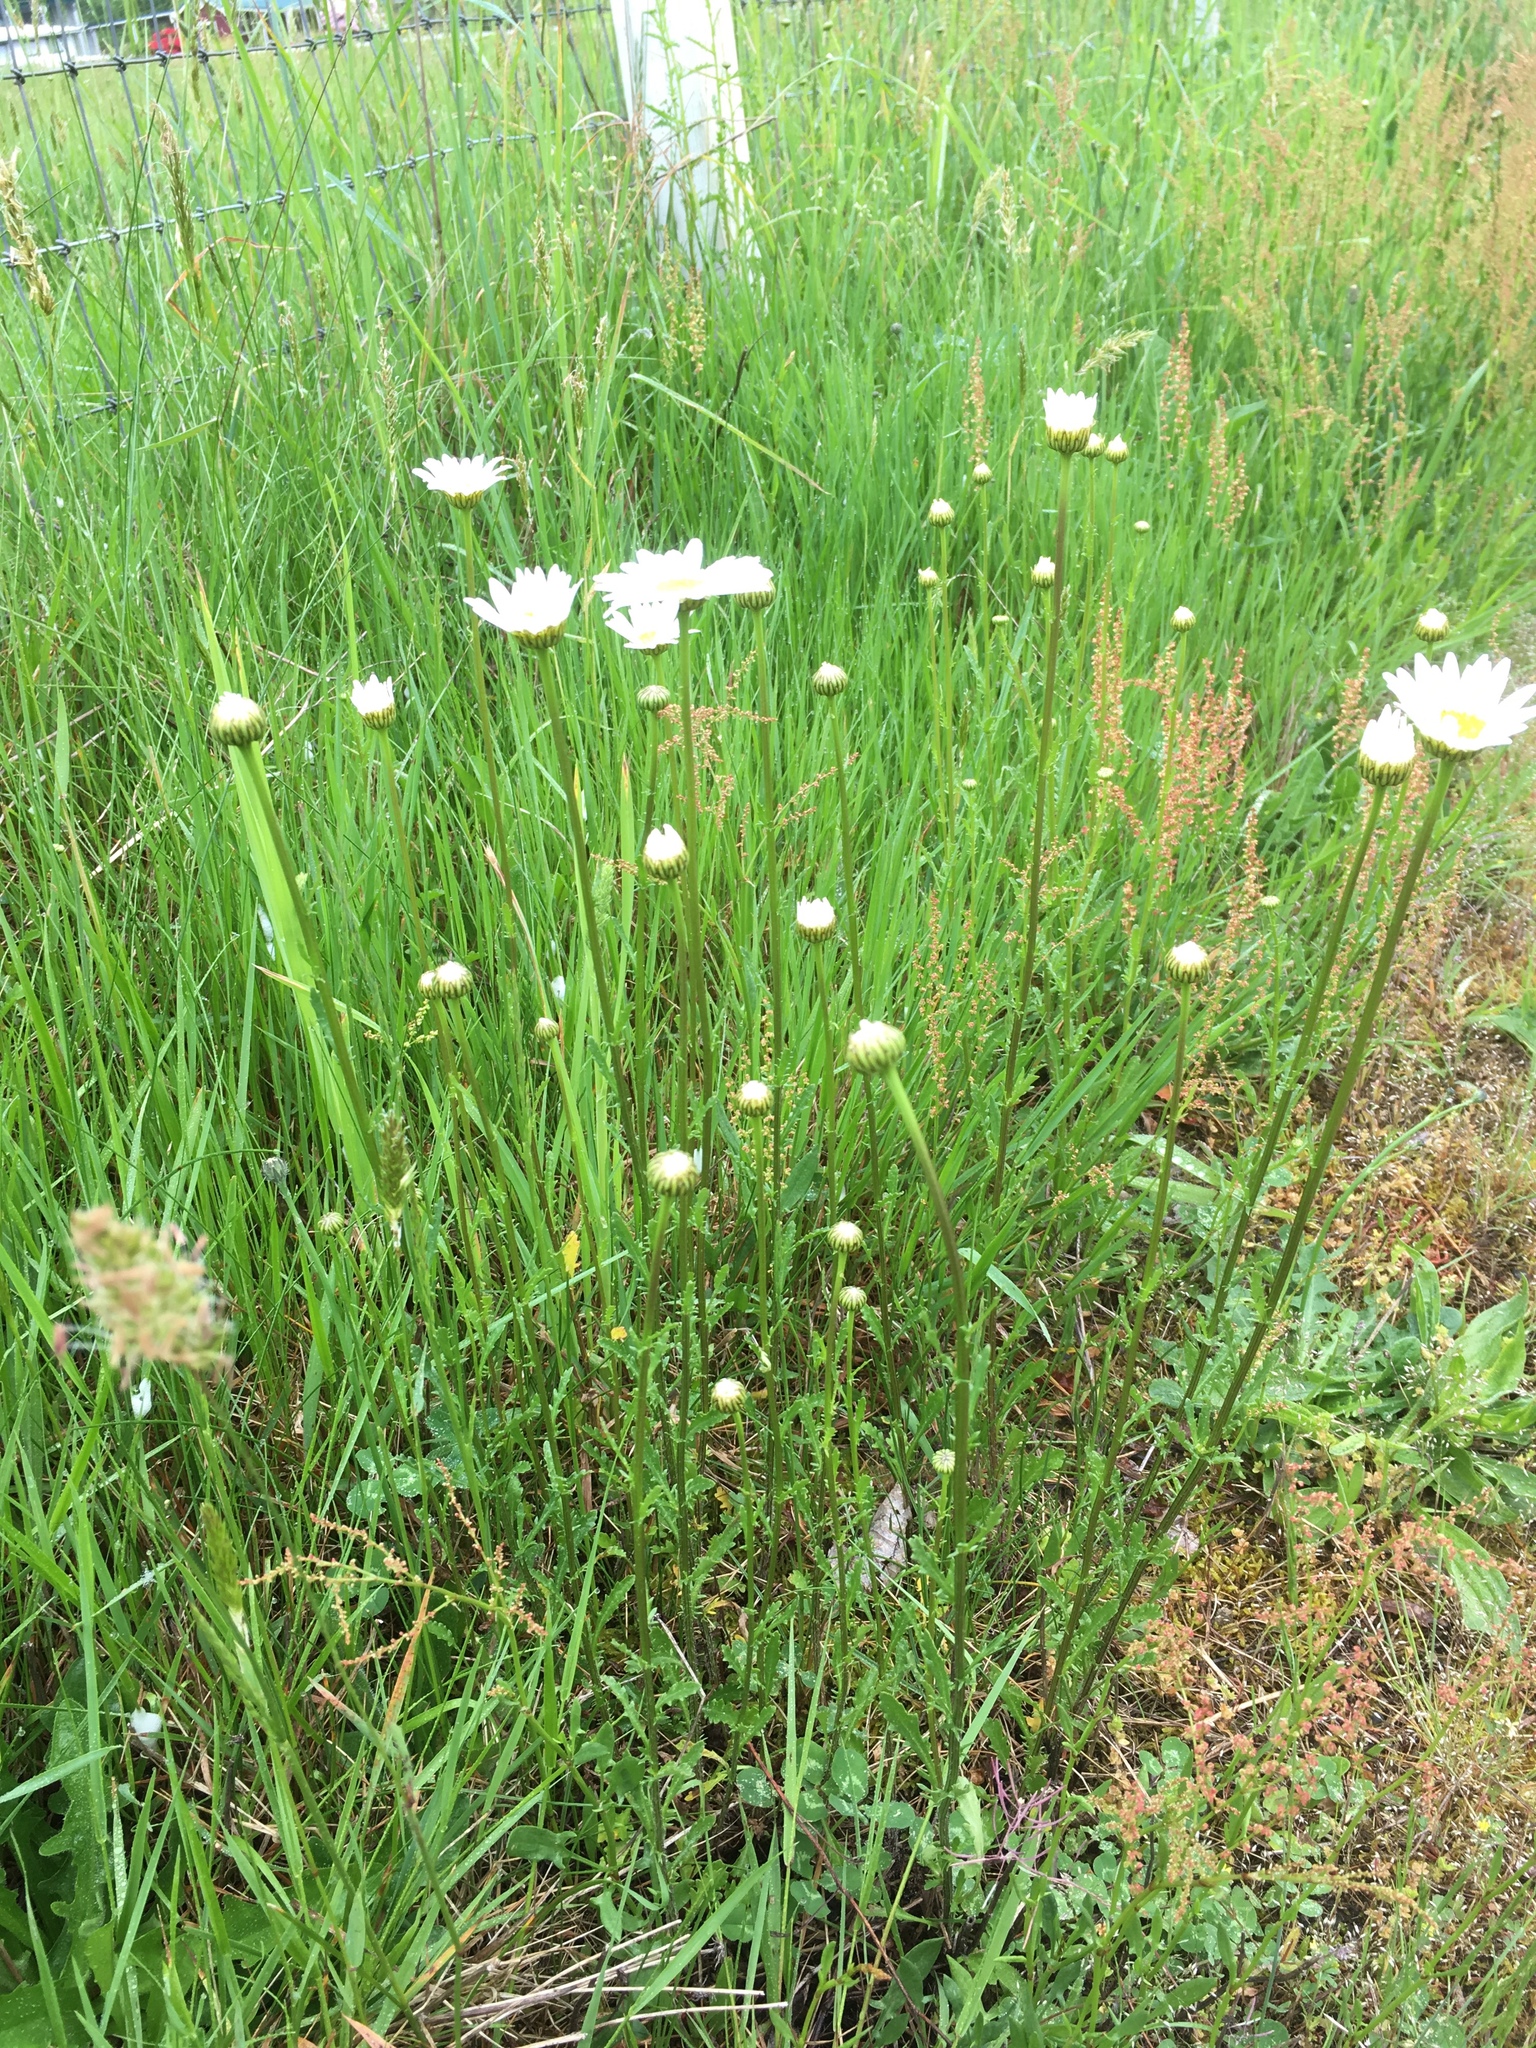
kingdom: Plantae
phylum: Tracheophyta
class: Magnoliopsida
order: Asterales
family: Asteraceae
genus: Leucanthemum
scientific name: Leucanthemum vulgare
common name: Oxeye daisy
